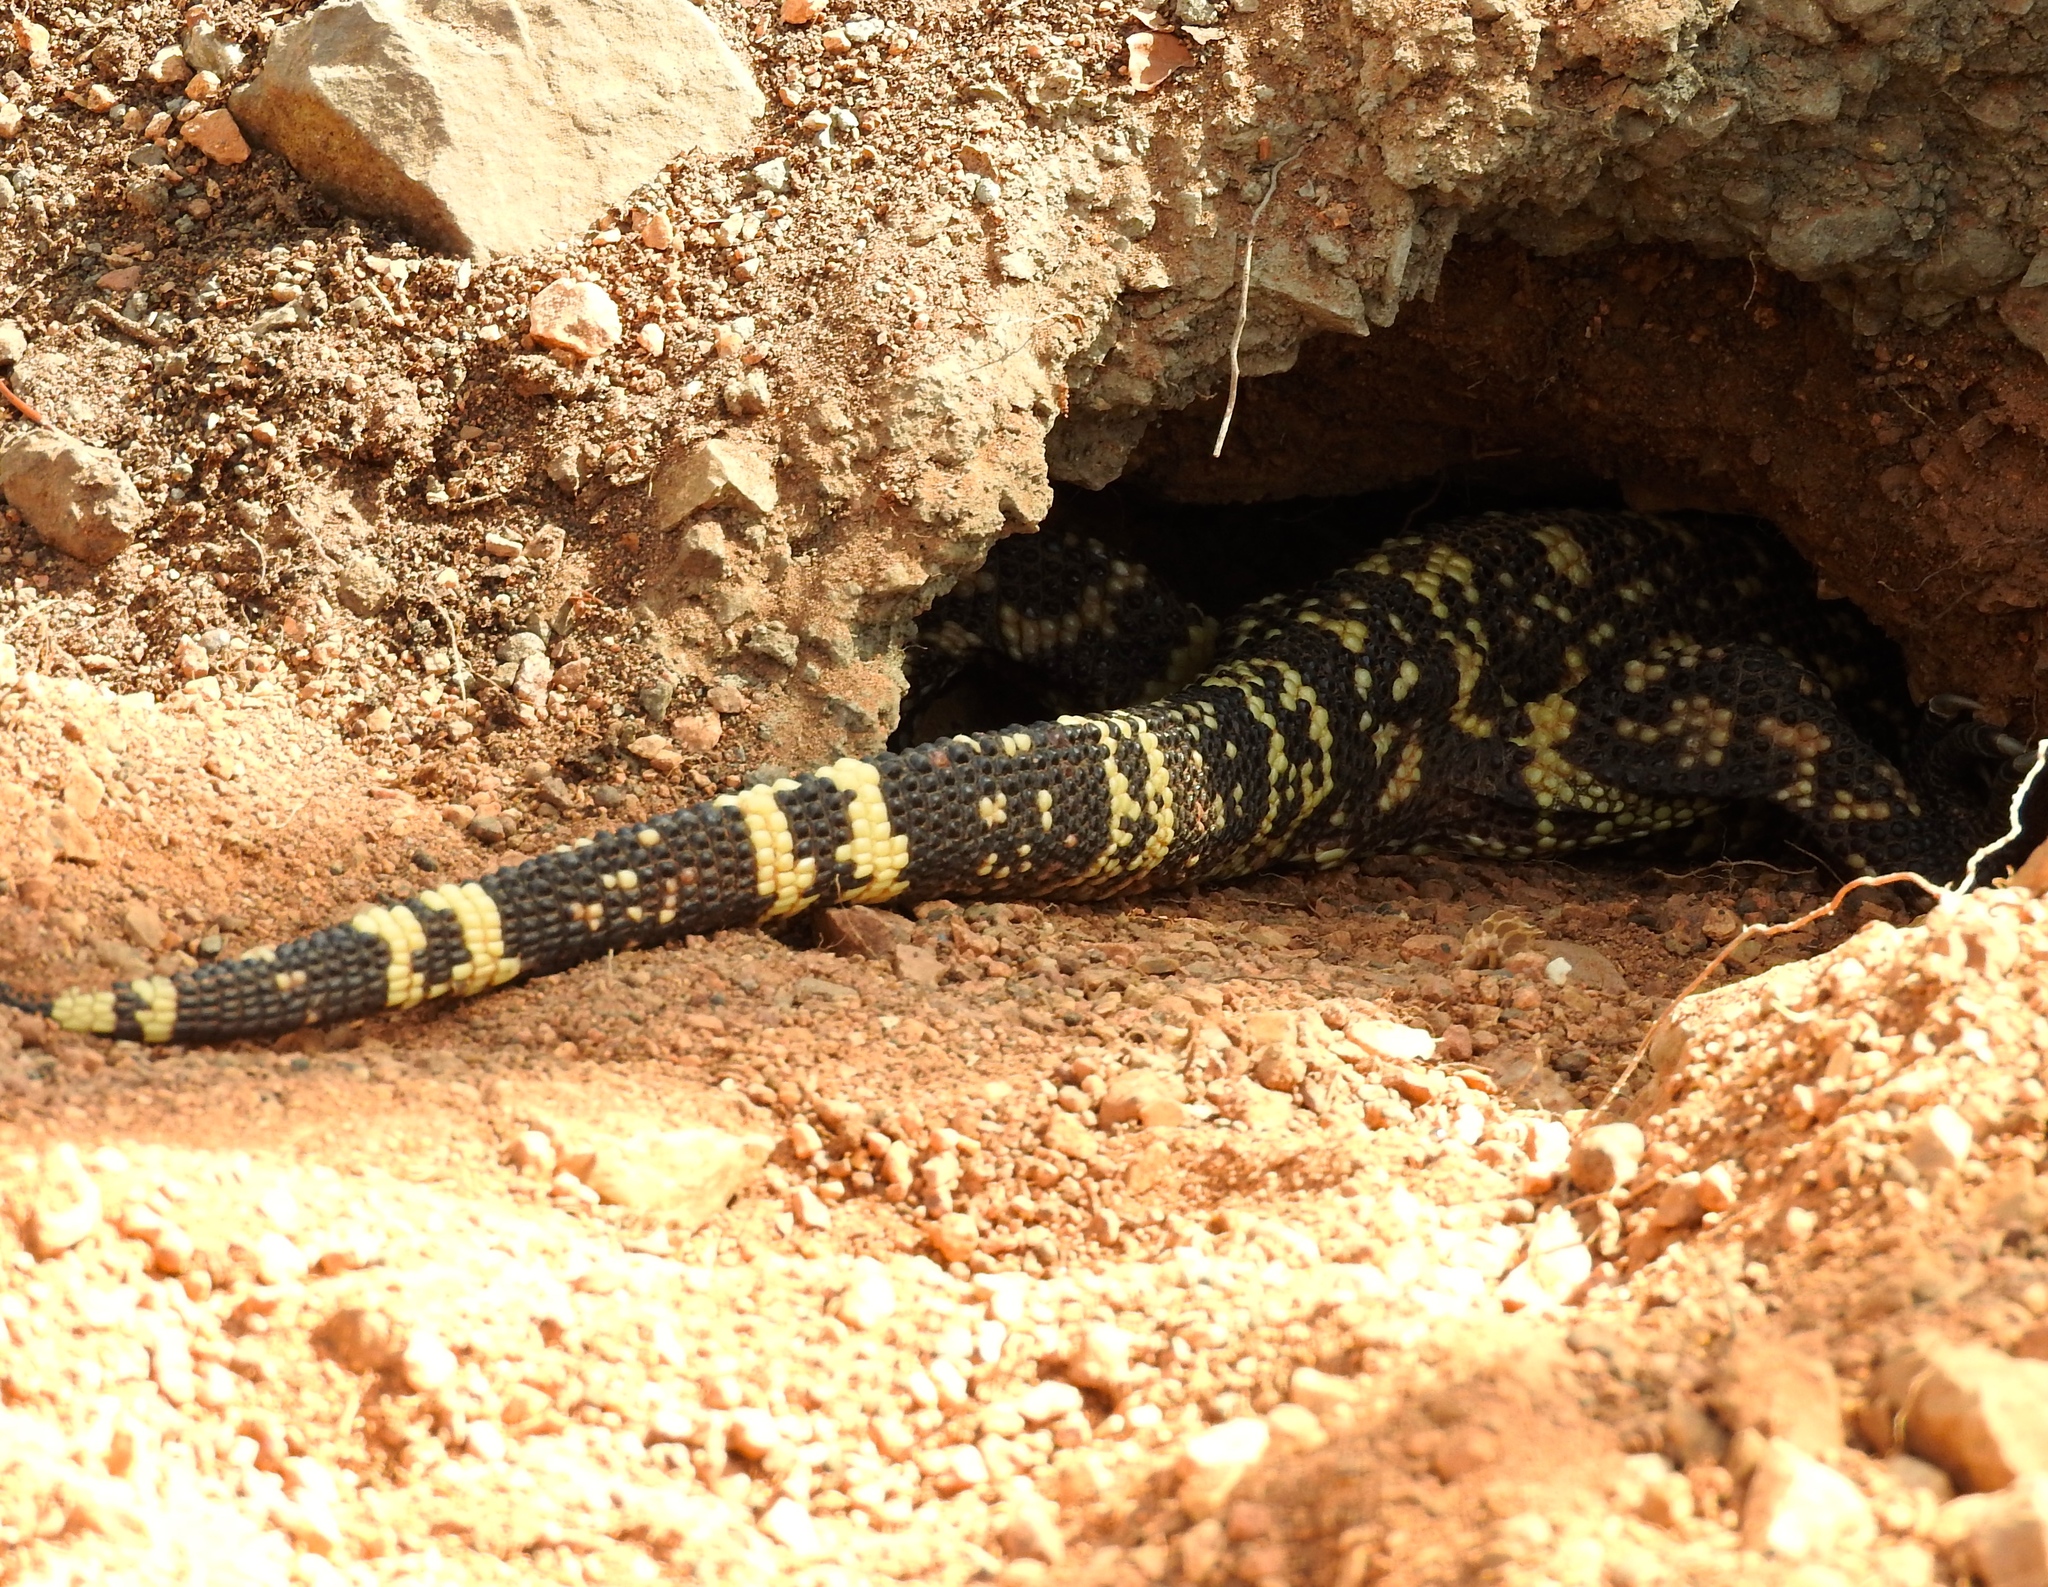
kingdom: Animalia
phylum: Chordata
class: Squamata
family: Helodermatidae
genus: Heloderma
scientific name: Heloderma horridum
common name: Mexican beaded lizard
